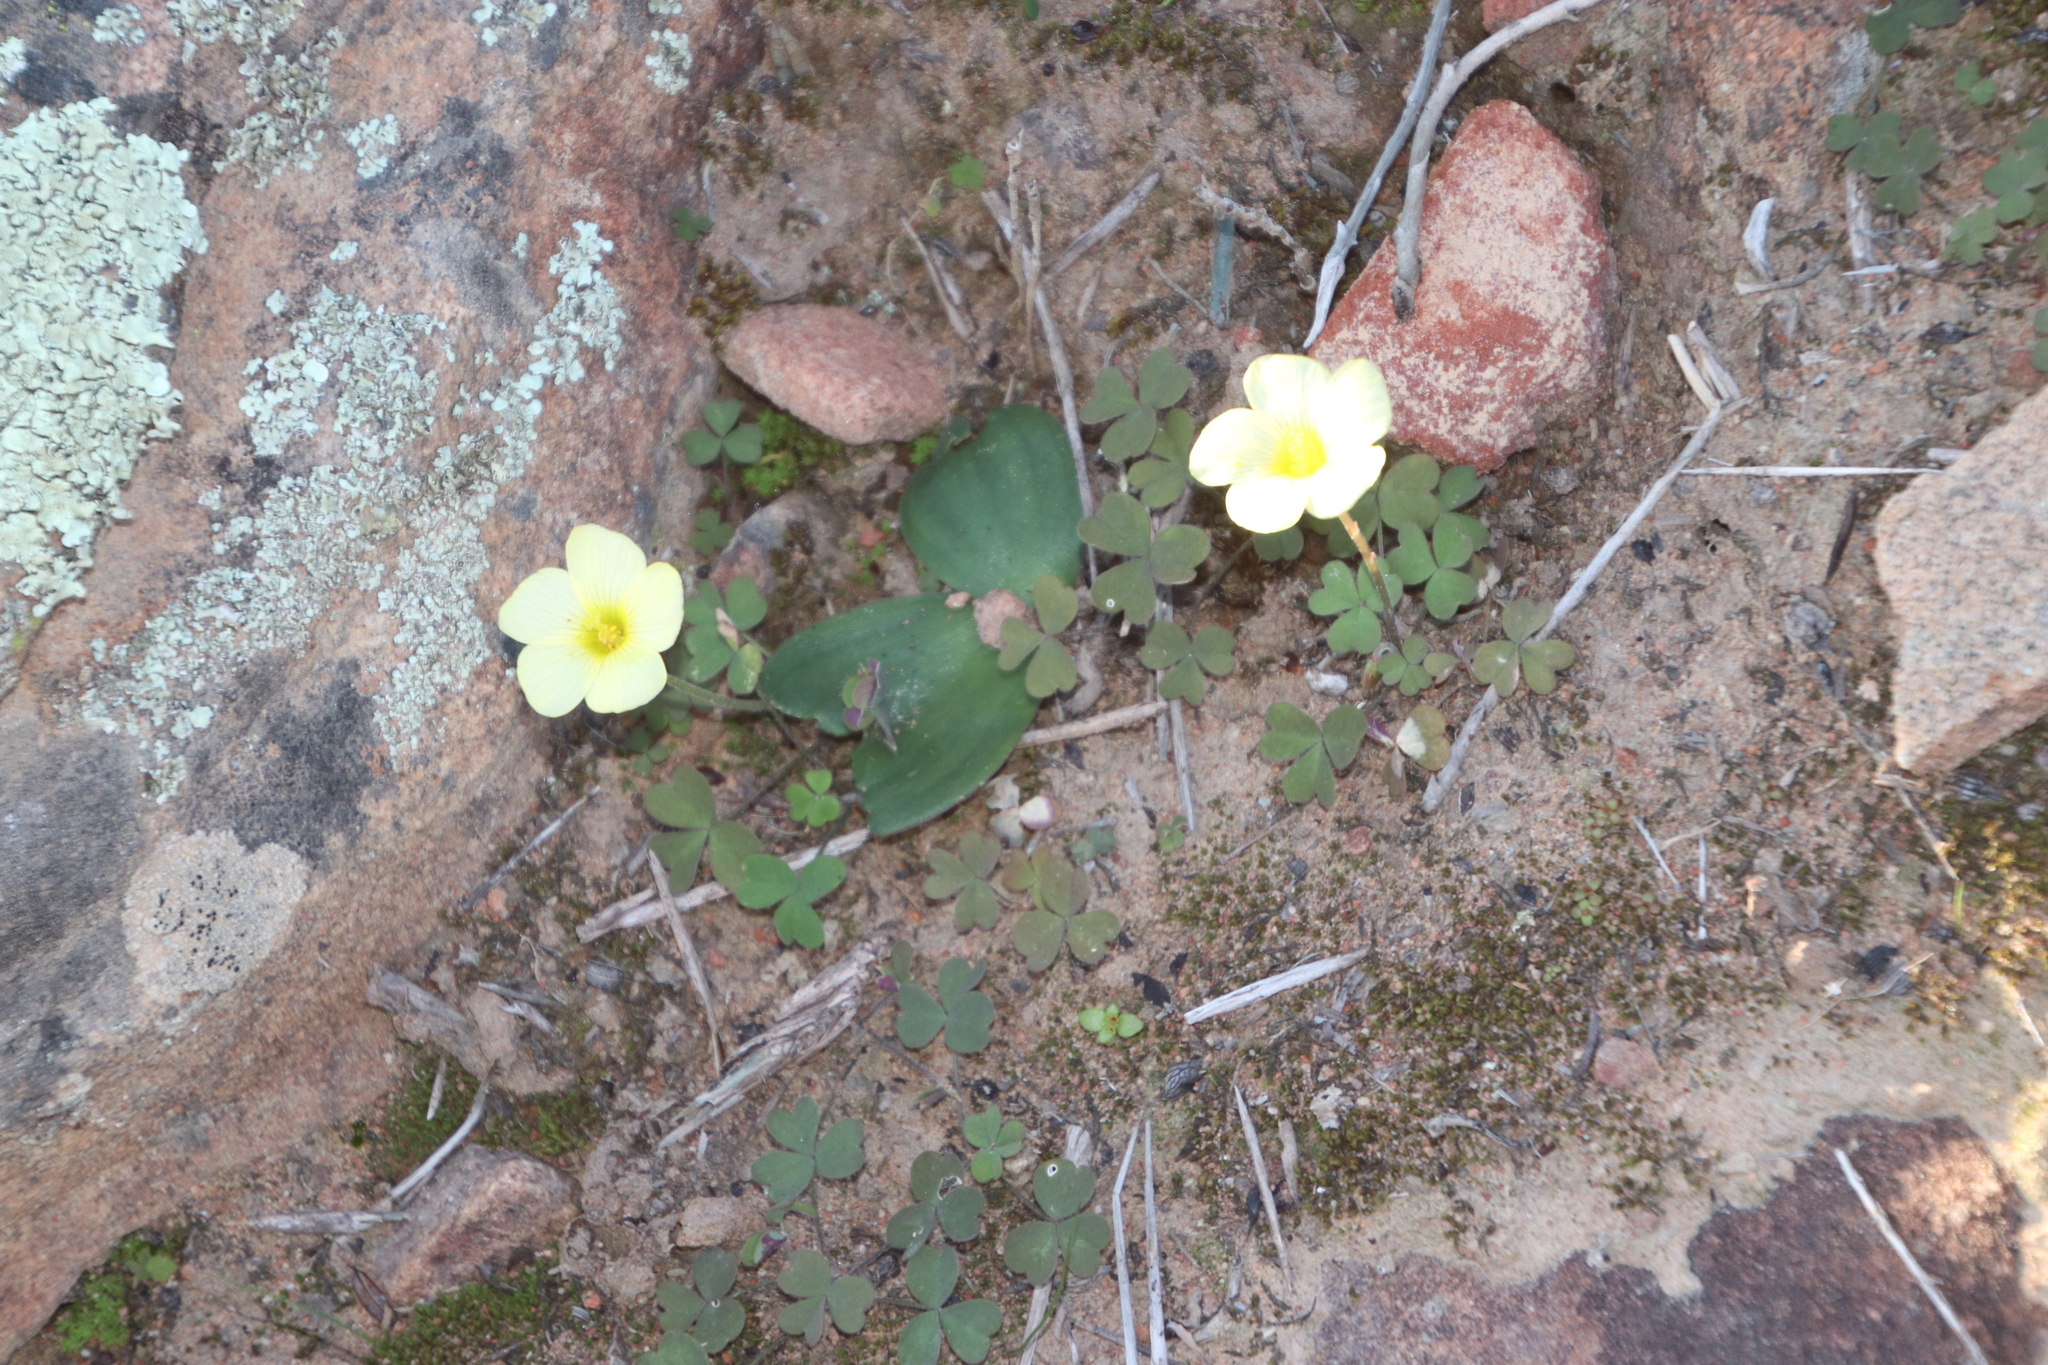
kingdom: Plantae
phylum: Tracheophyta
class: Magnoliopsida
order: Oxalidales
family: Oxalidaceae
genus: Oxalis
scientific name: Oxalis obtusa
